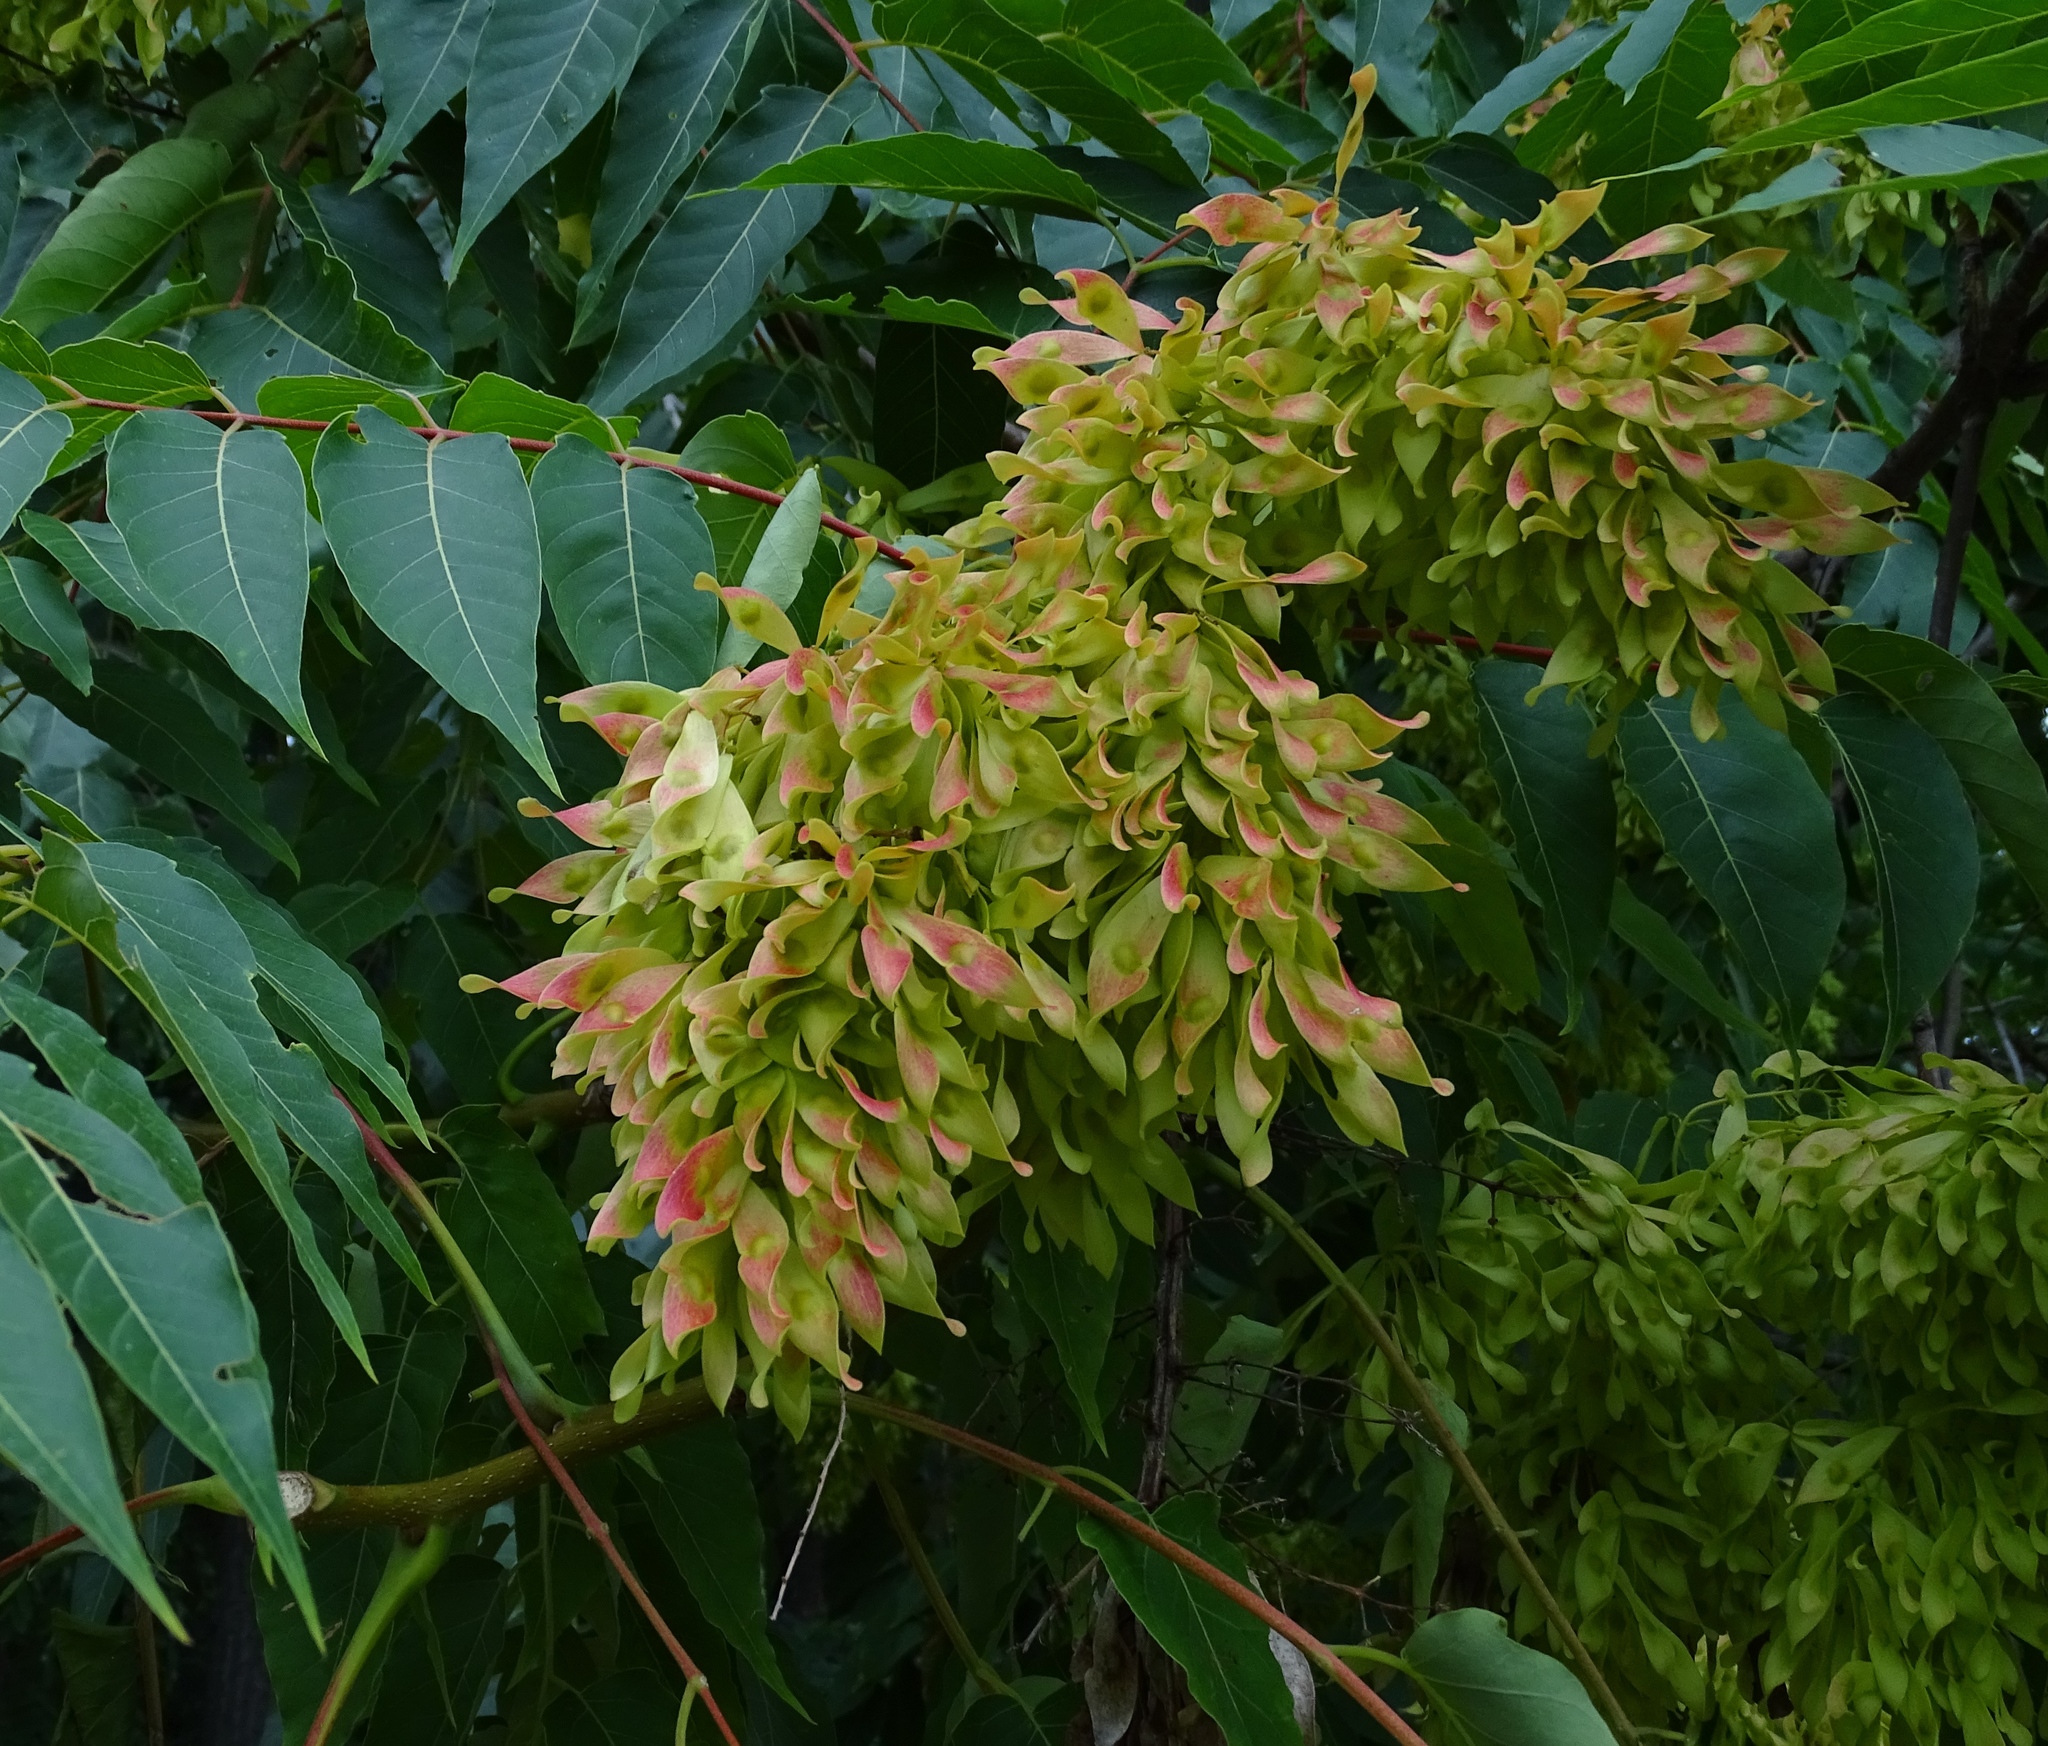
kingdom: Plantae
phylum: Tracheophyta
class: Magnoliopsida
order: Sapindales
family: Simaroubaceae
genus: Ailanthus
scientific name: Ailanthus altissima
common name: Tree-of-heaven
